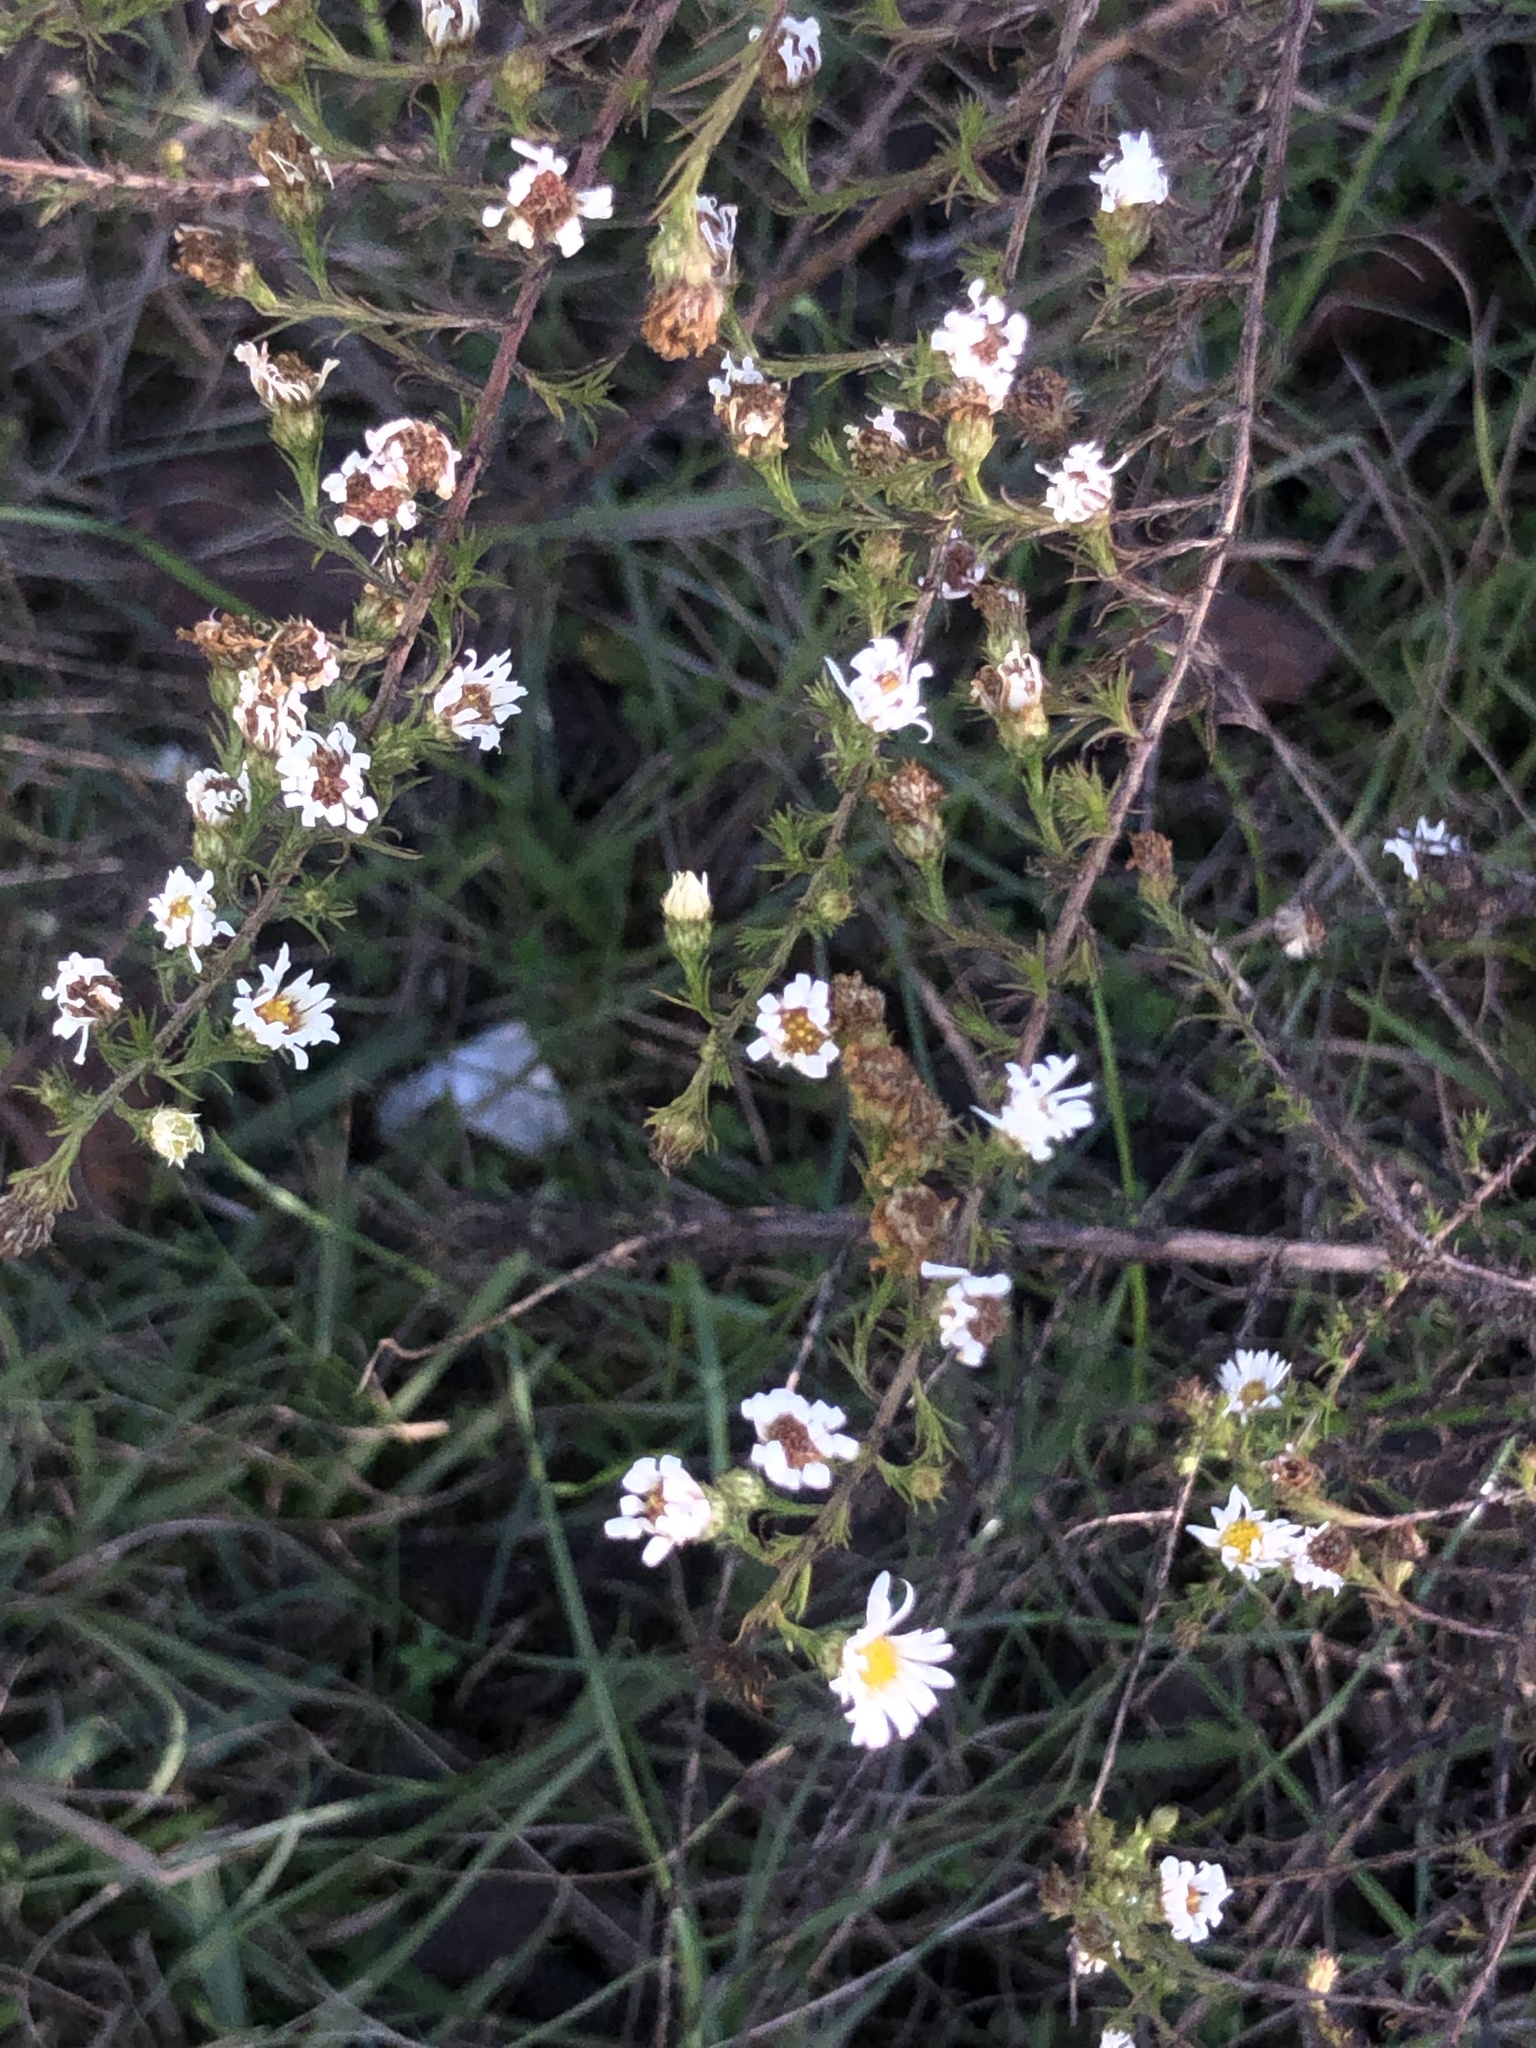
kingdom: Plantae
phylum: Tracheophyta
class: Magnoliopsida
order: Asterales
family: Asteraceae
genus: Symphyotrichum
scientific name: Symphyotrichum pilosum
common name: Awl aster
